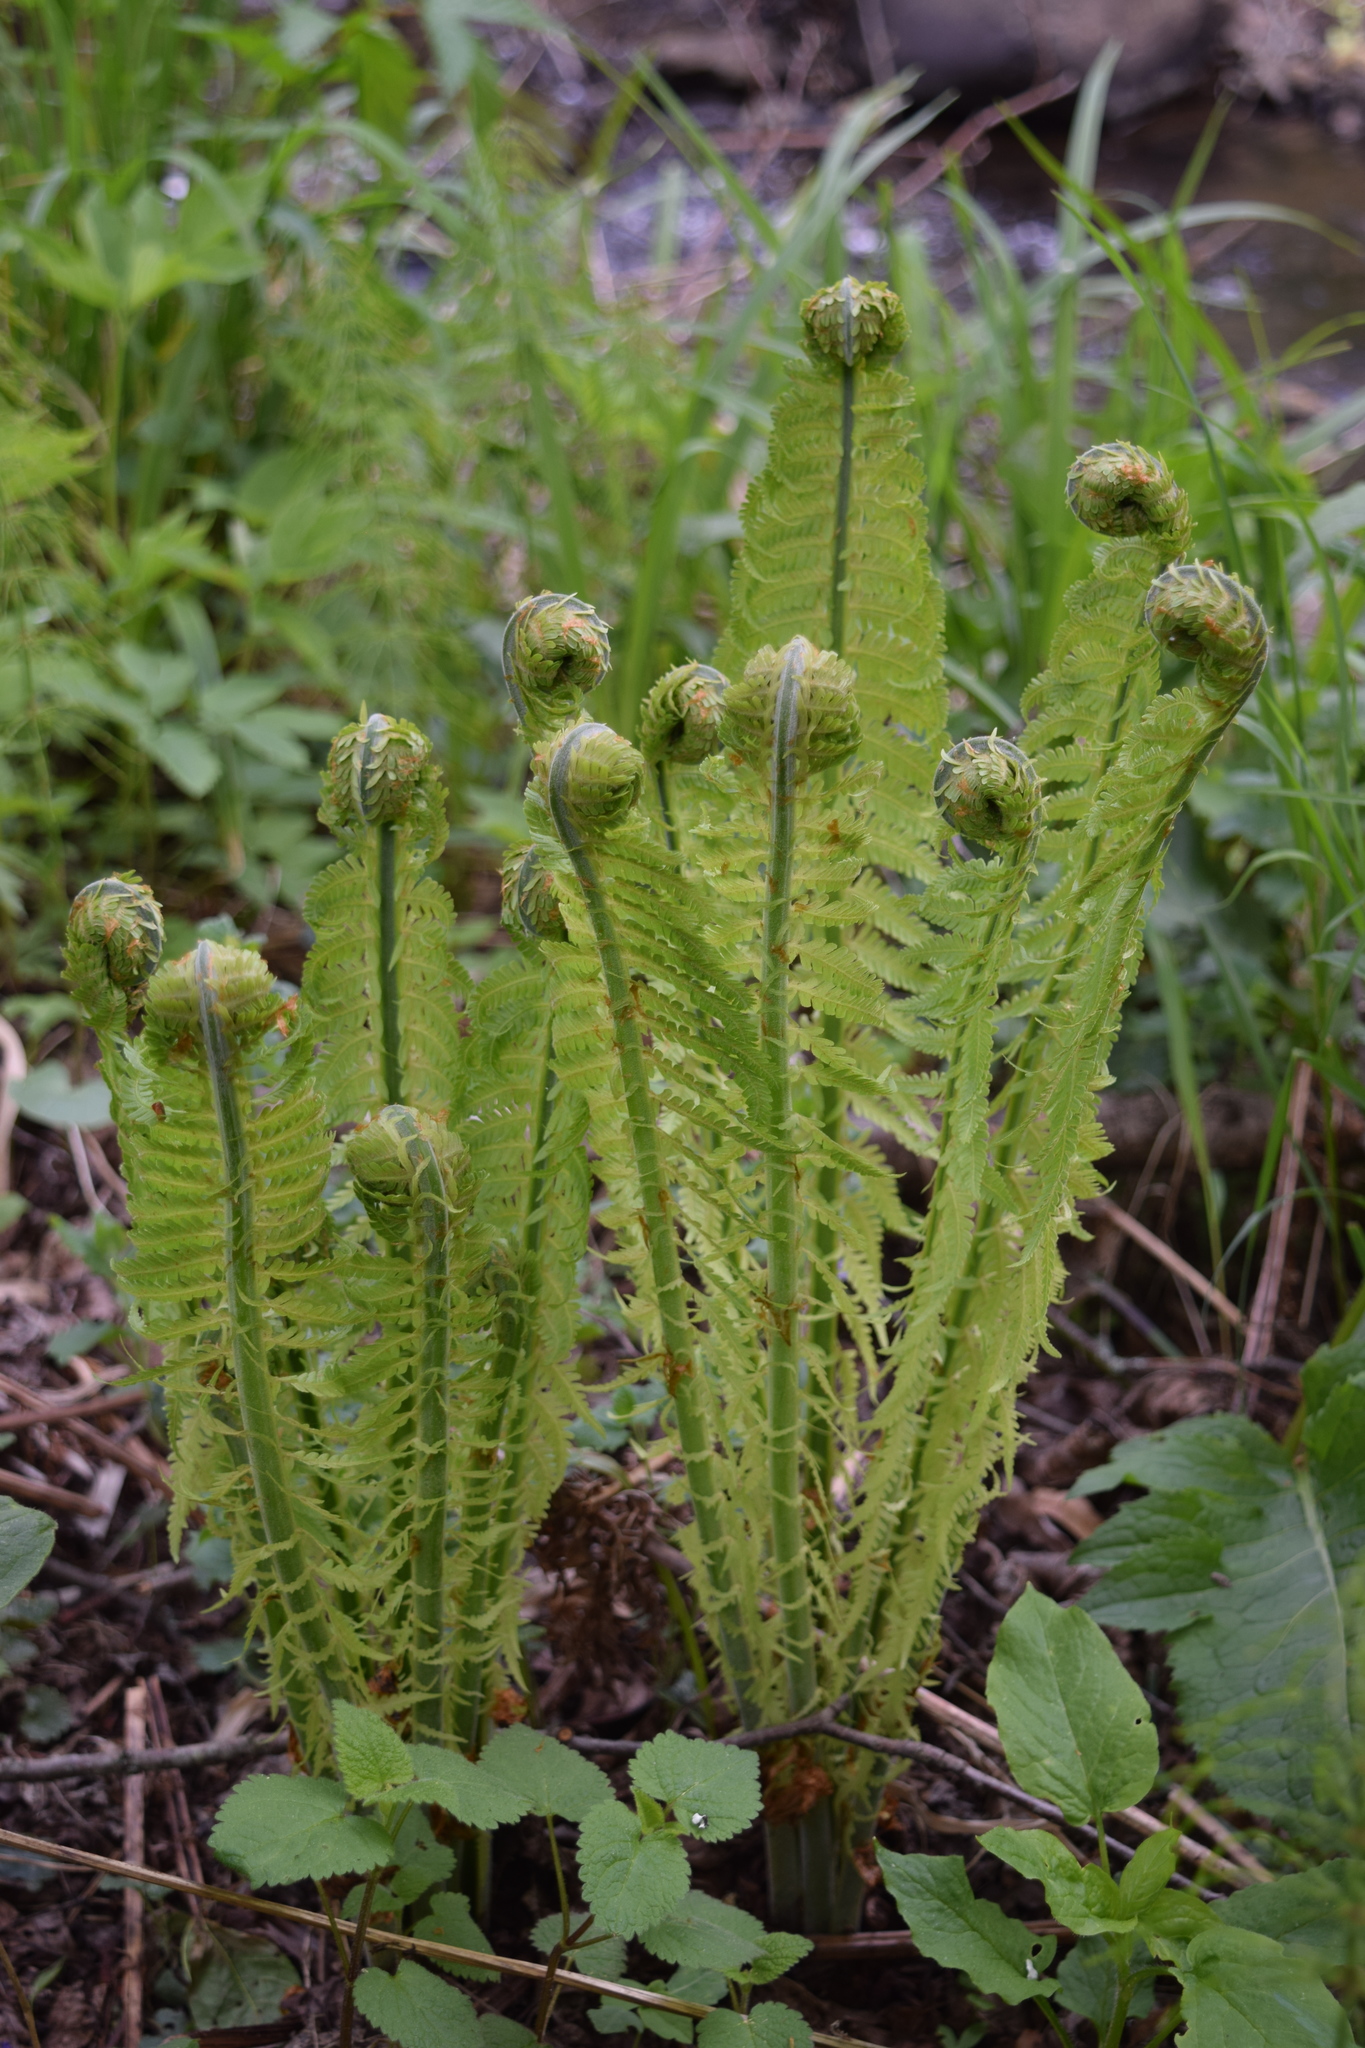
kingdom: Plantae
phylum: Tracheophyta
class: Polypodiopsida
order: Polypodiales
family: Onocleaceae
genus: Matteuccia
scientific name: Matteuccia struthiopteris
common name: Ostrich fern
